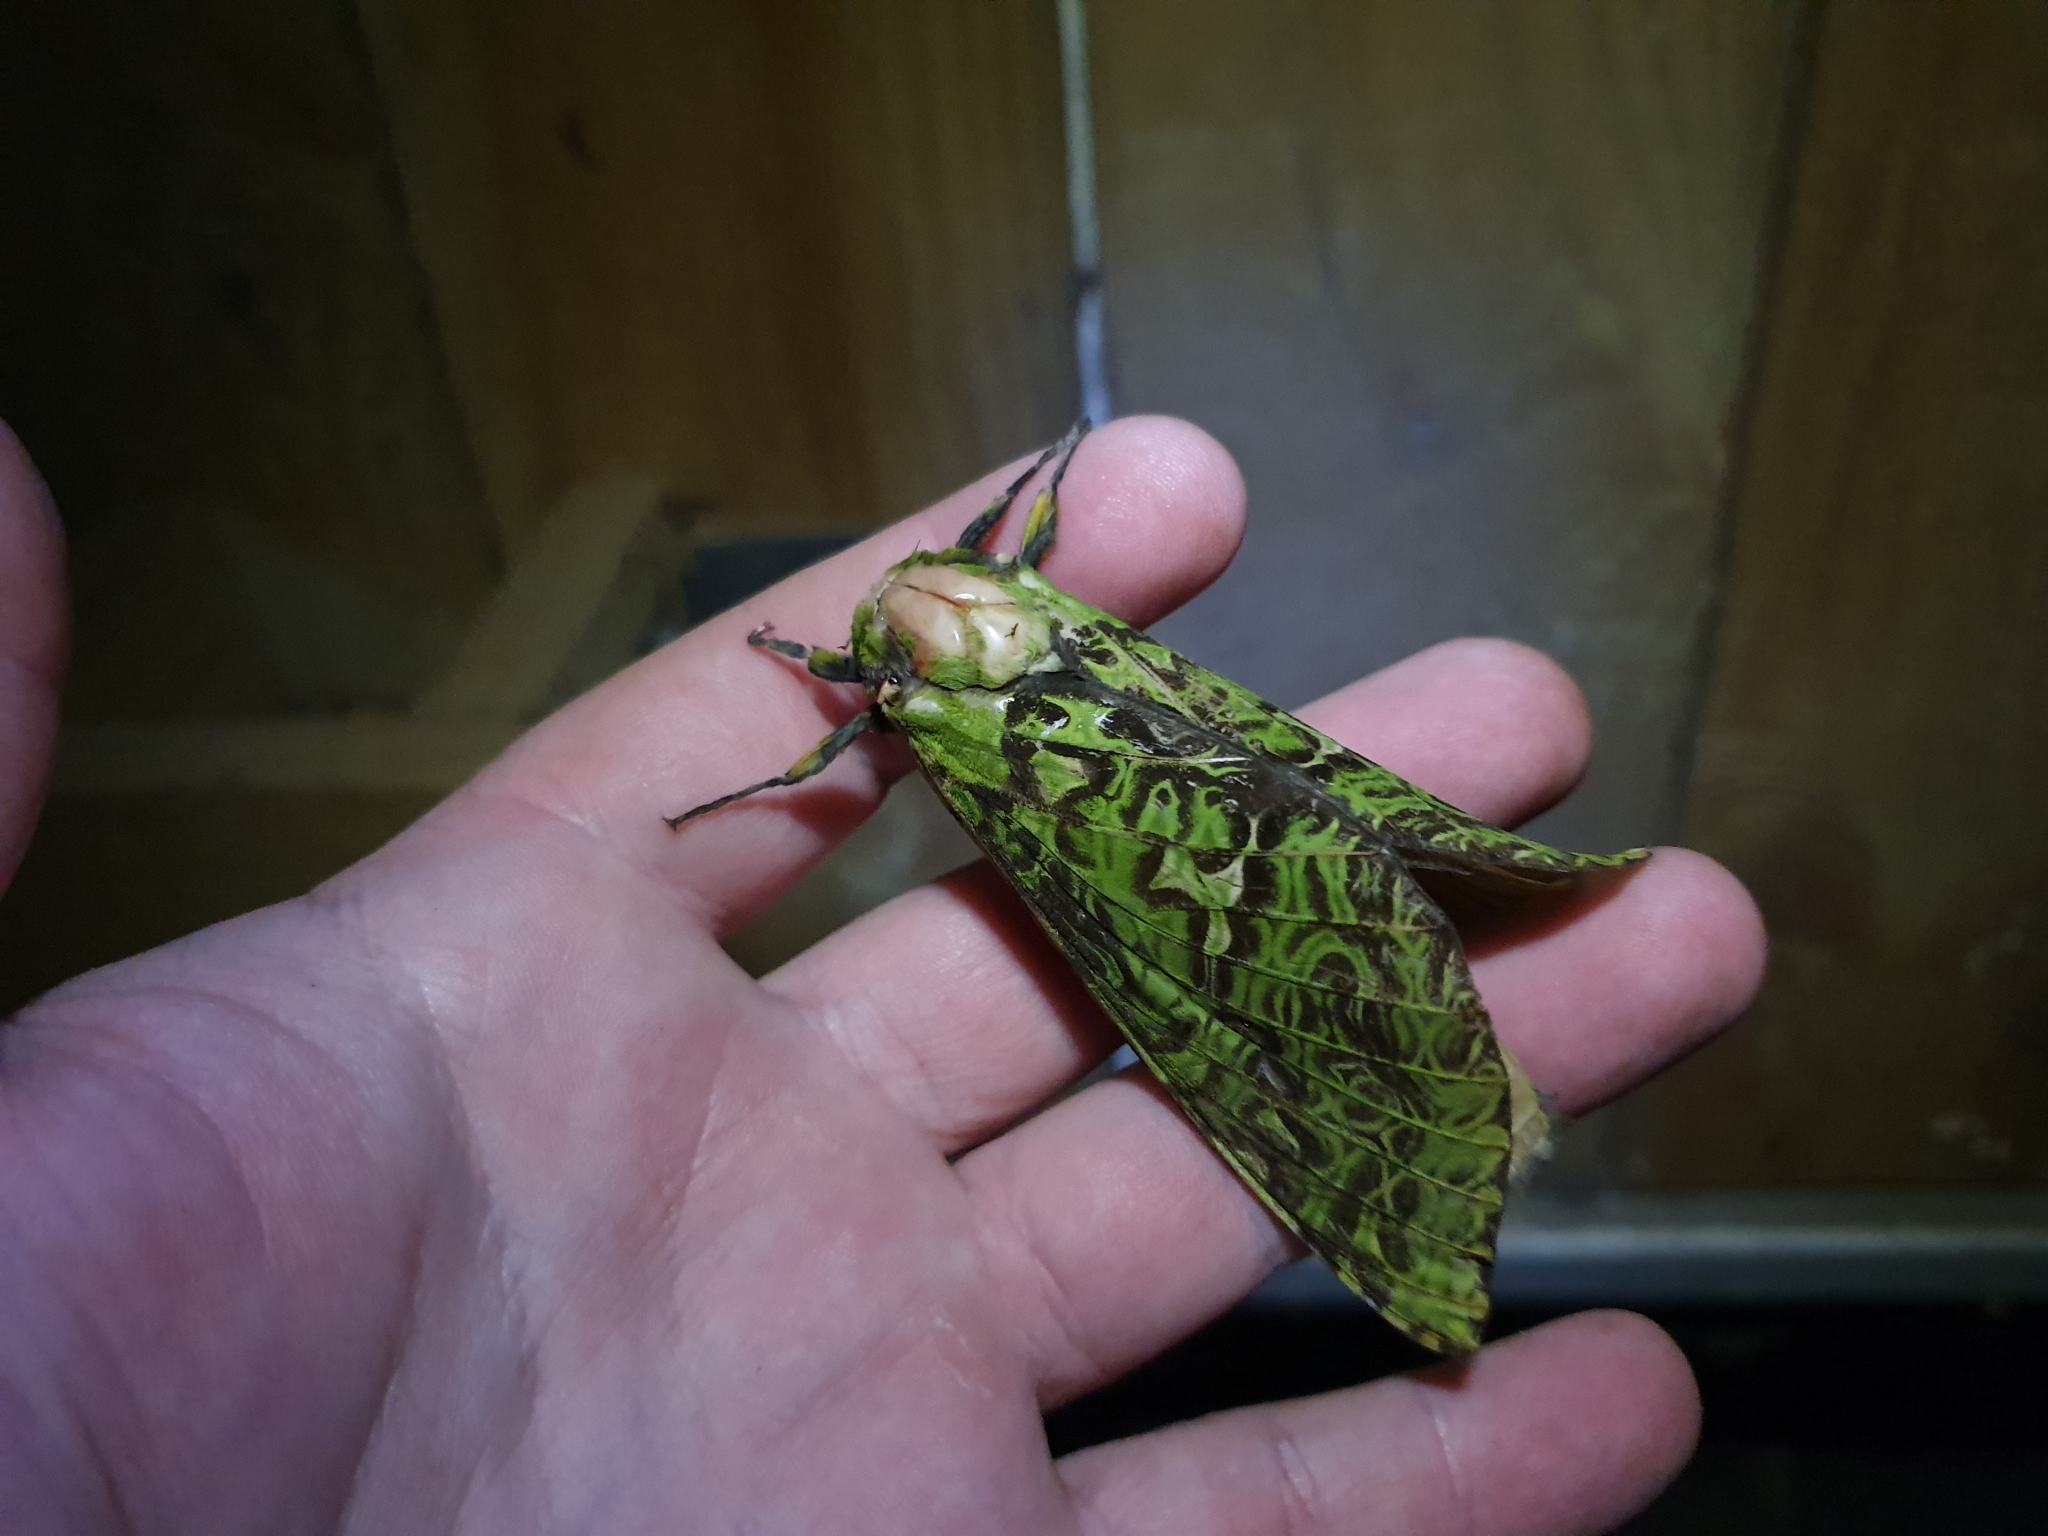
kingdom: Animalia
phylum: Arthropoda
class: Insecta
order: Lepidoptera
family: Hepialidae
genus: Aenetus
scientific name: Aenetus virescens
